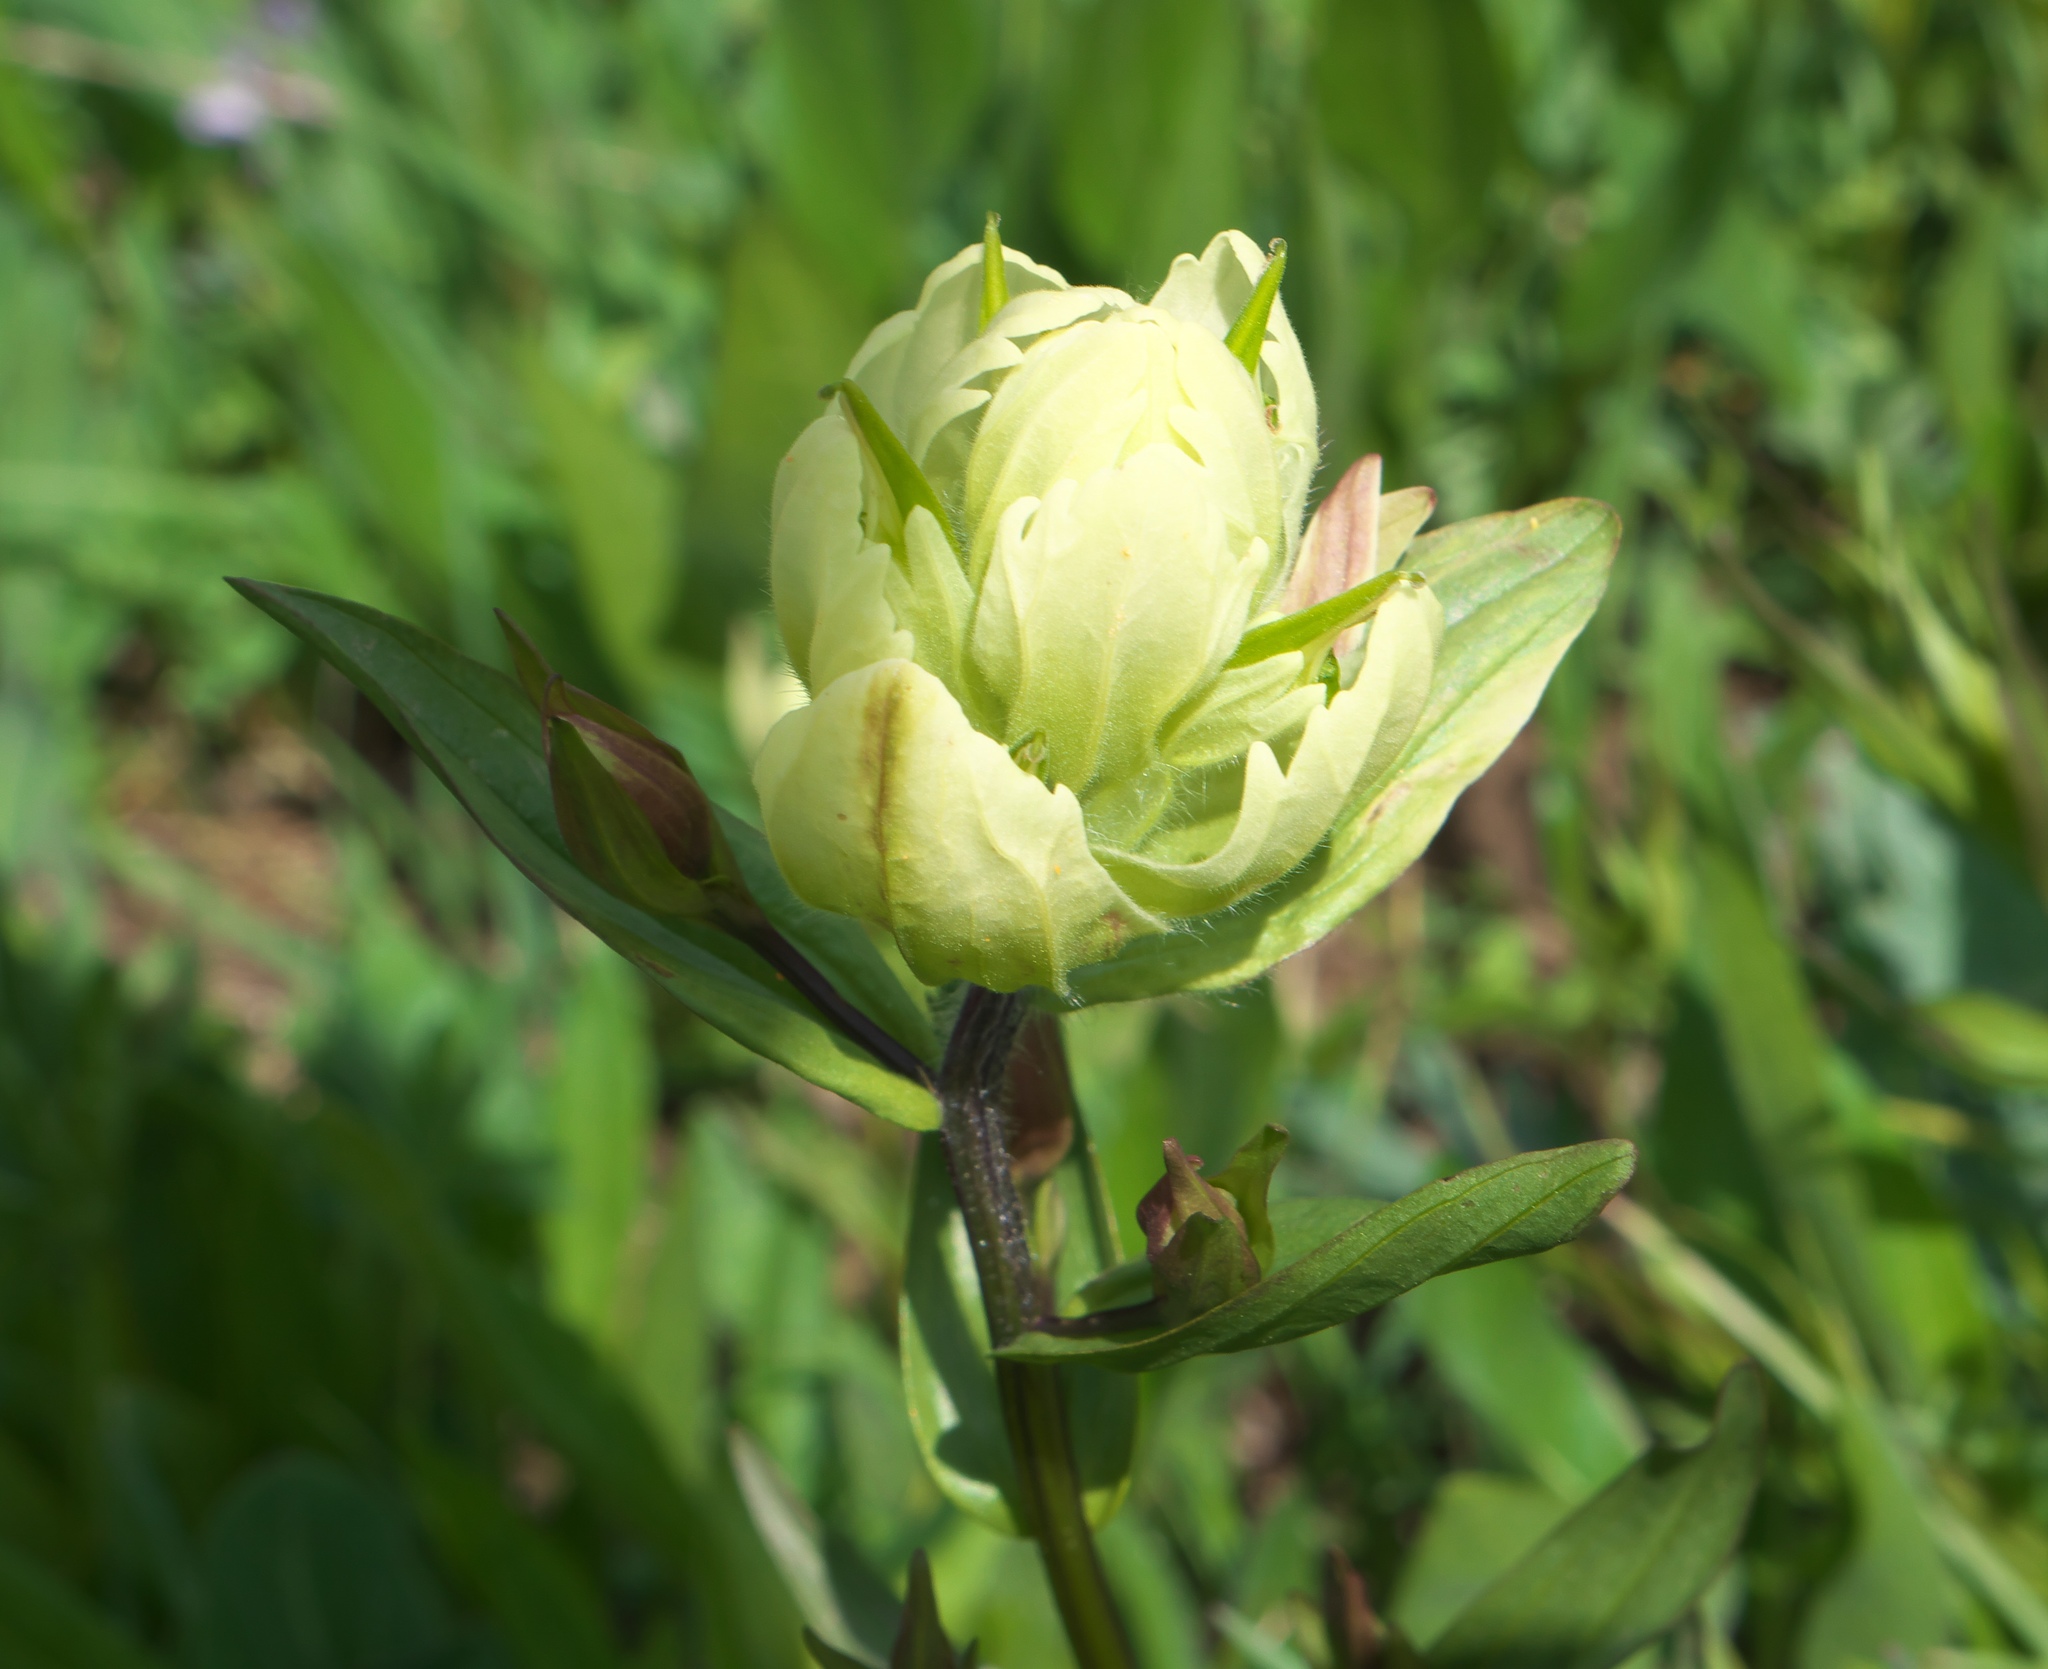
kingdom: Plantae
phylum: Tracheophyta
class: Magnoliopsida
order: Lamiales
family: Orobanchaceae
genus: Castilleja
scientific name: Castilleja septentrionalis
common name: Northeastern paintbrush
